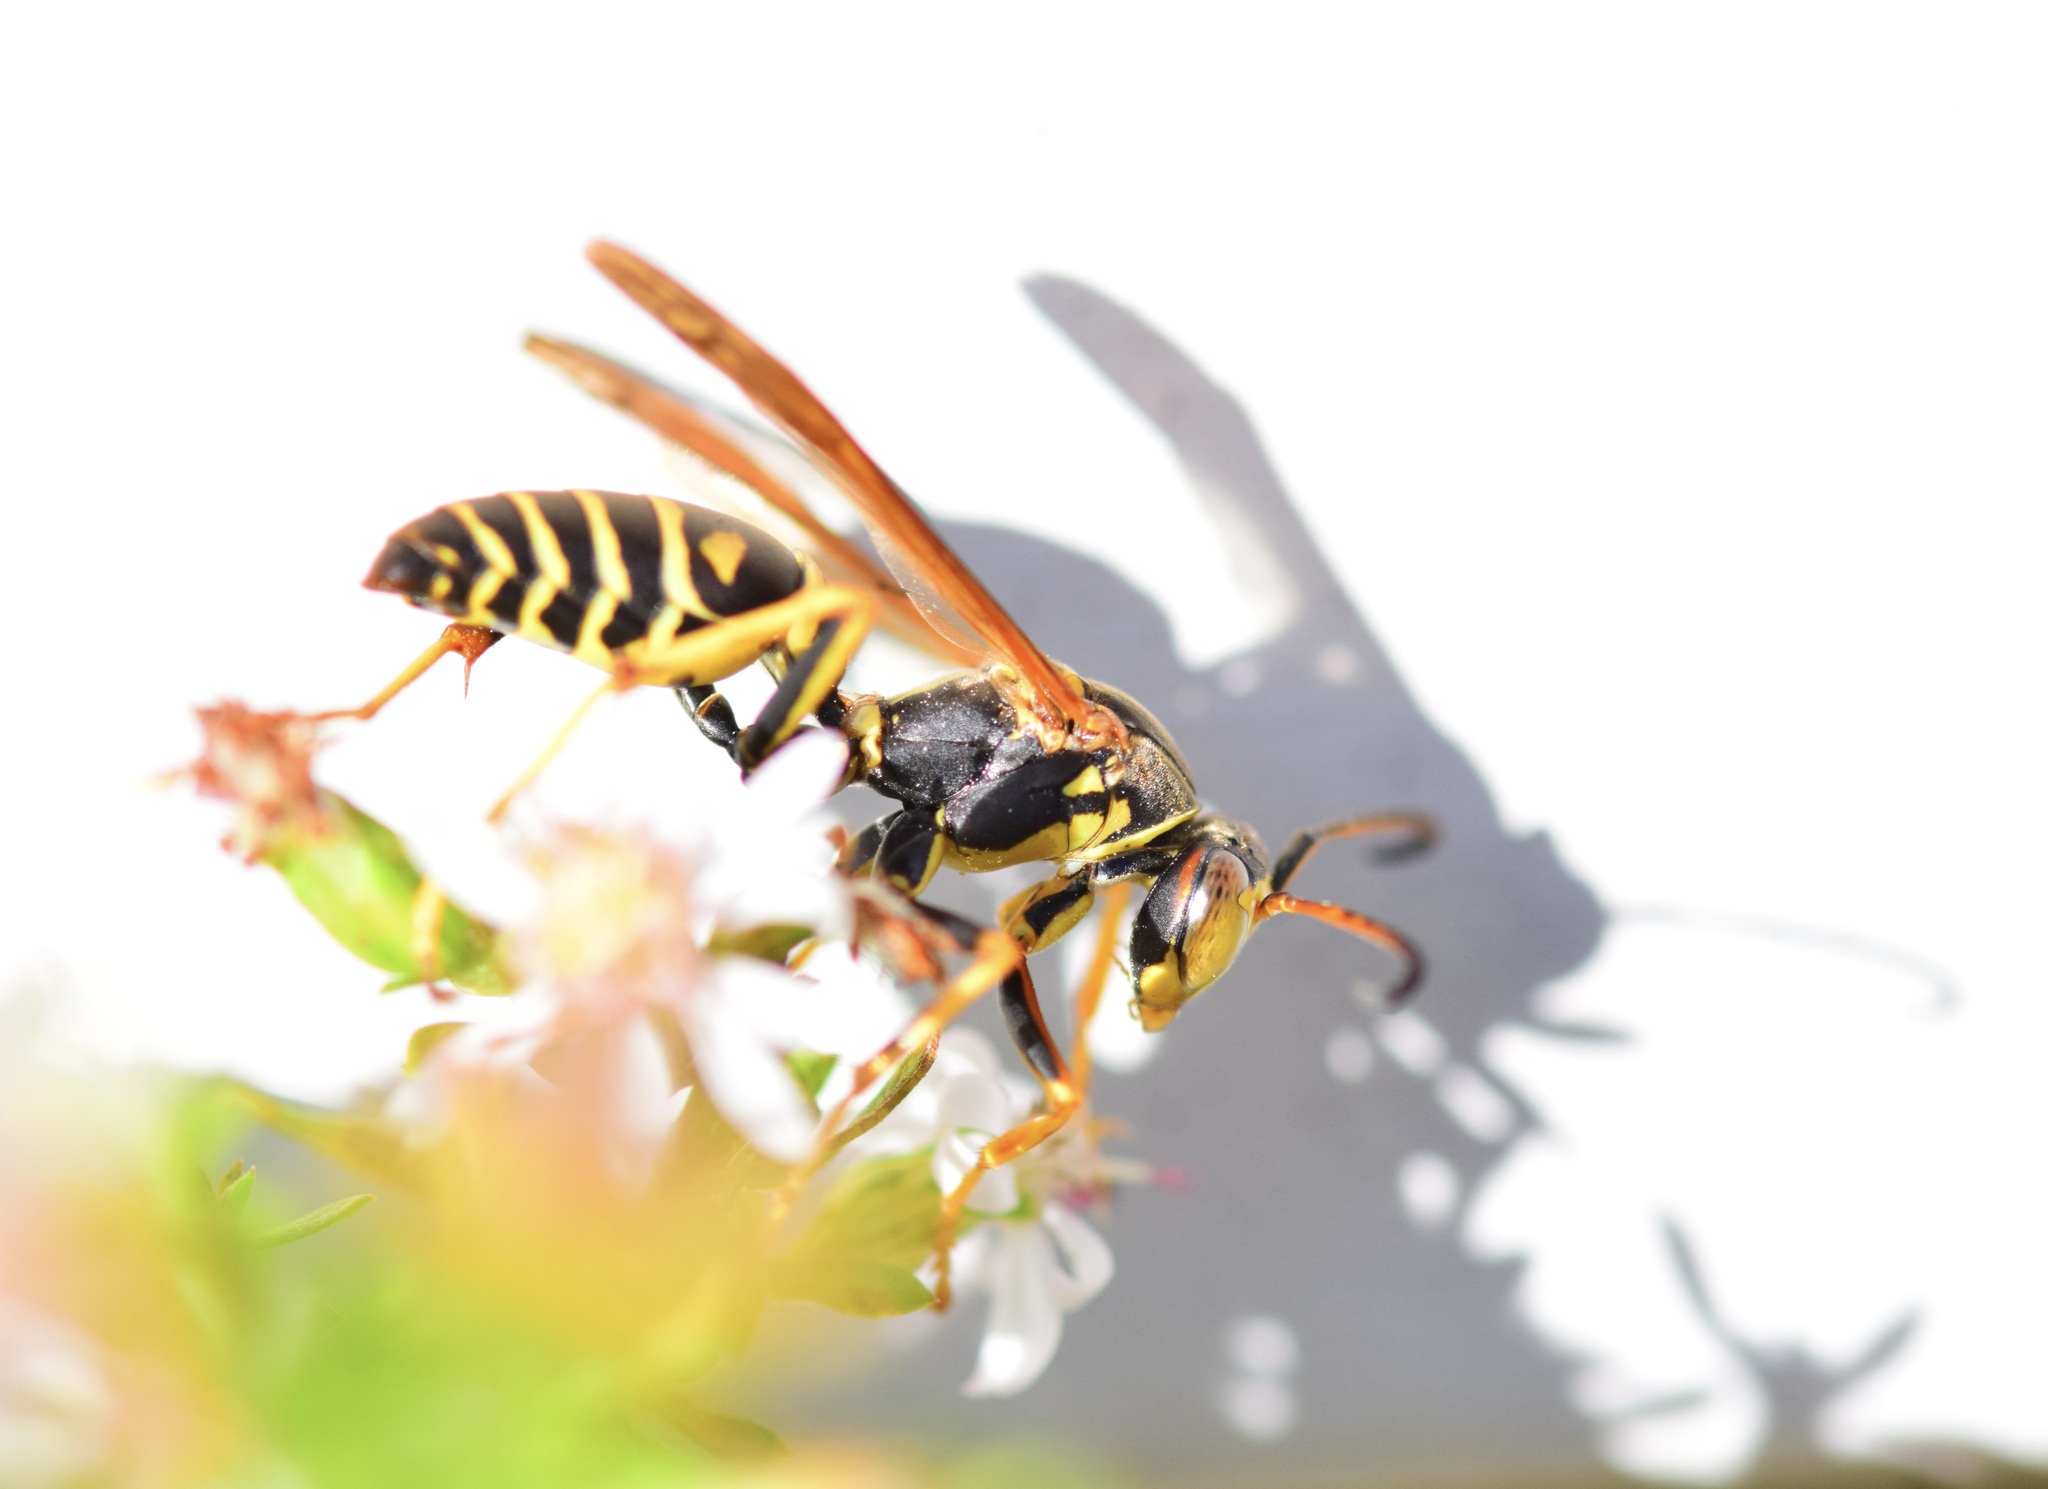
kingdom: Animalia
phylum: Arthropoda
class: Insecta
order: Hymenoptera
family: Eumenidae
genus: Polistes
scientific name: Polistes fuscatus
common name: Dark paper wasp
